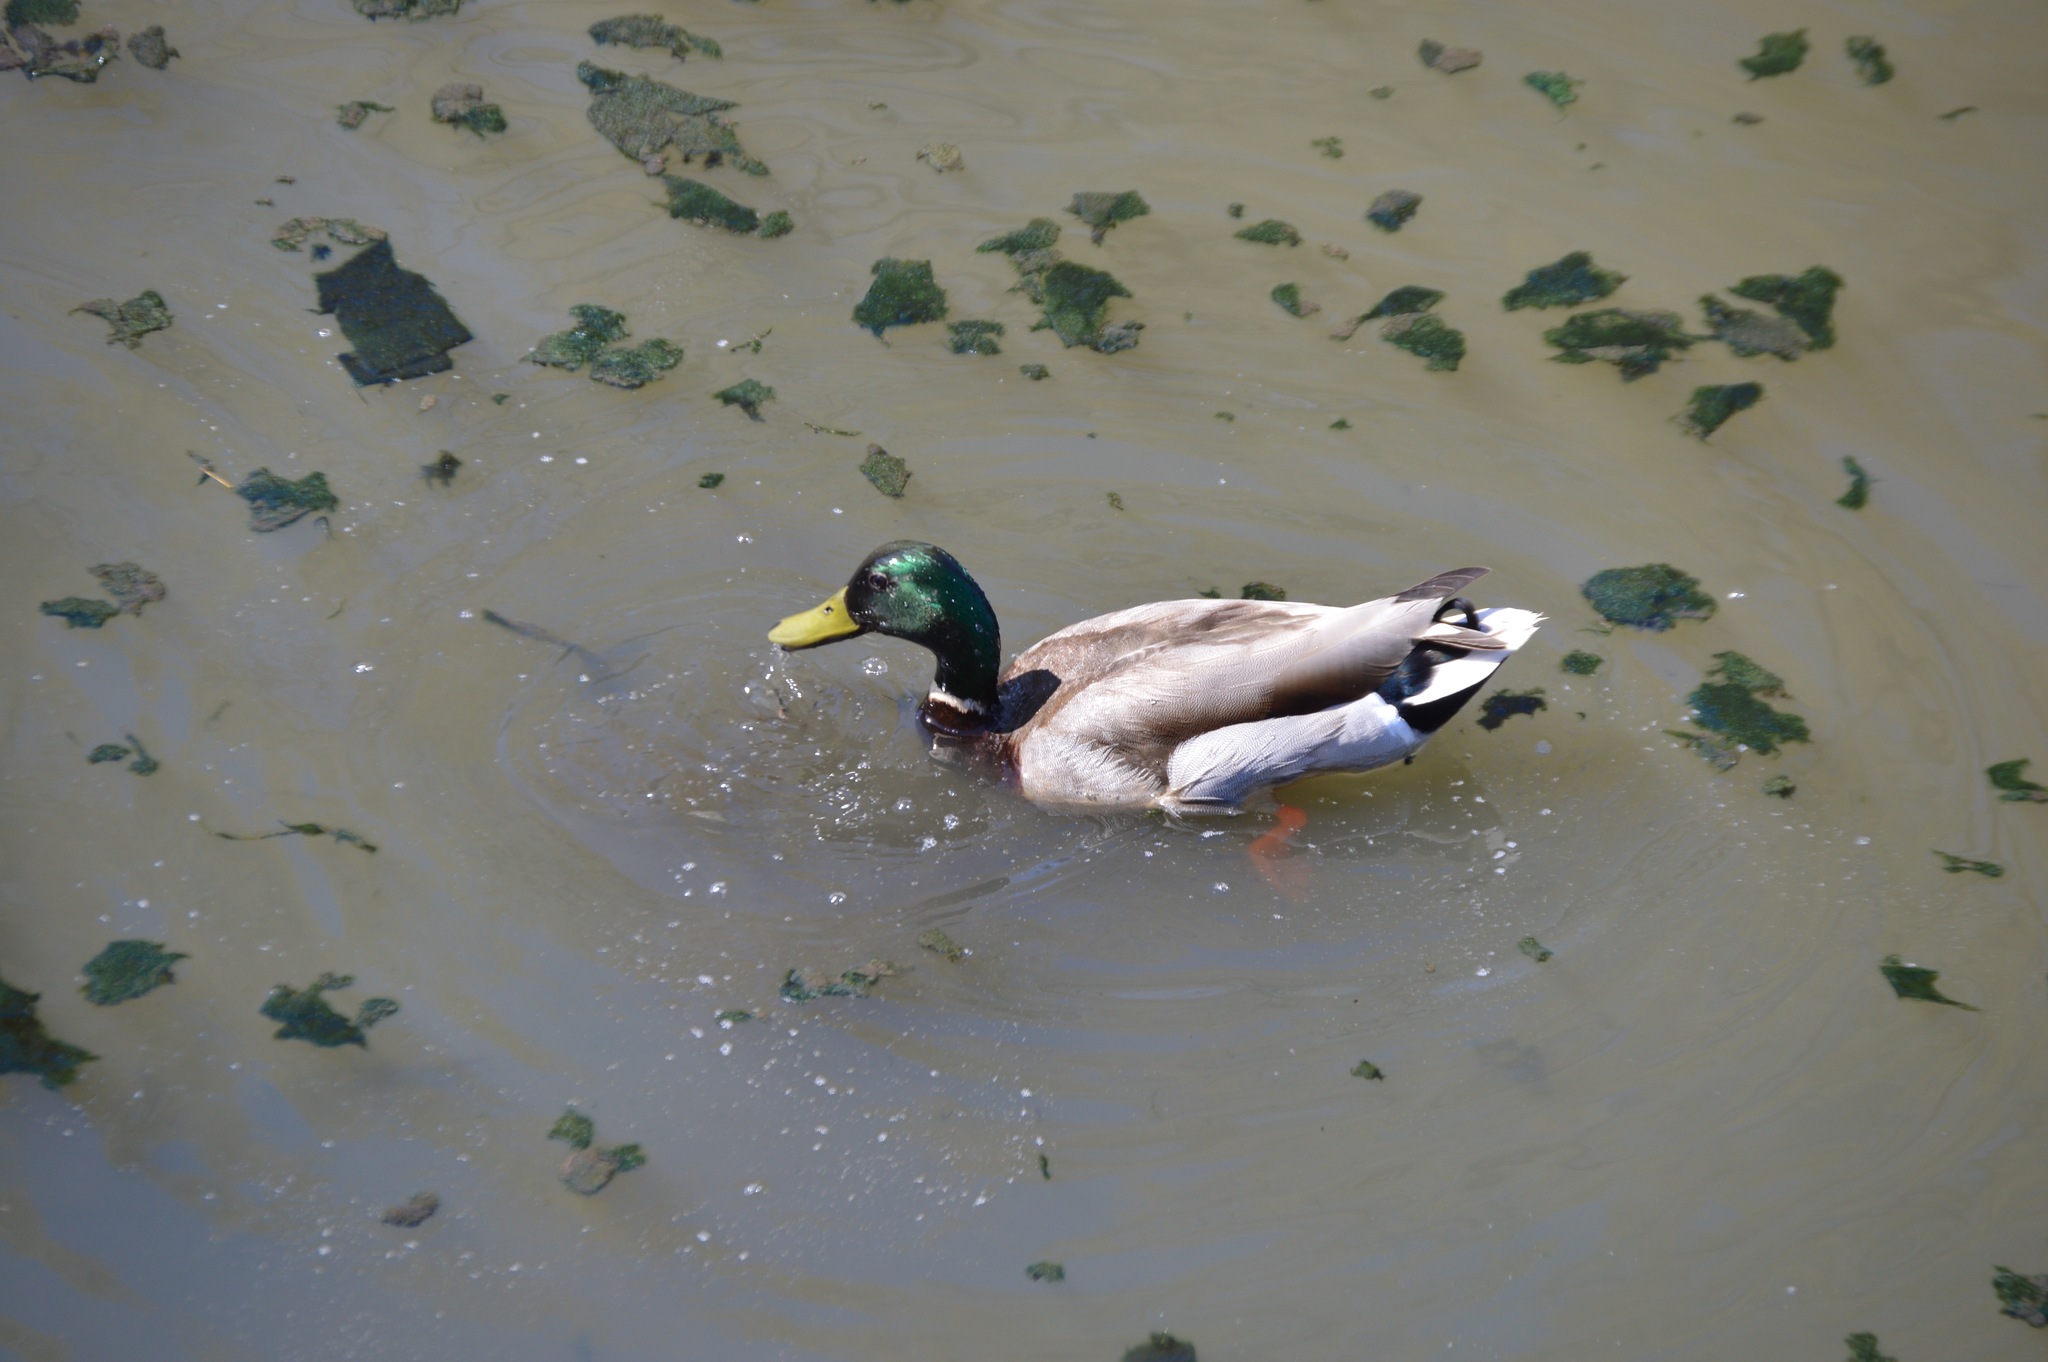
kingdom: Animalia
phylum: Chordata
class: Aves
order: Anseriformes
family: Anatidae
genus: Anas
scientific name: Anas platyrhynchos
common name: Mallard
